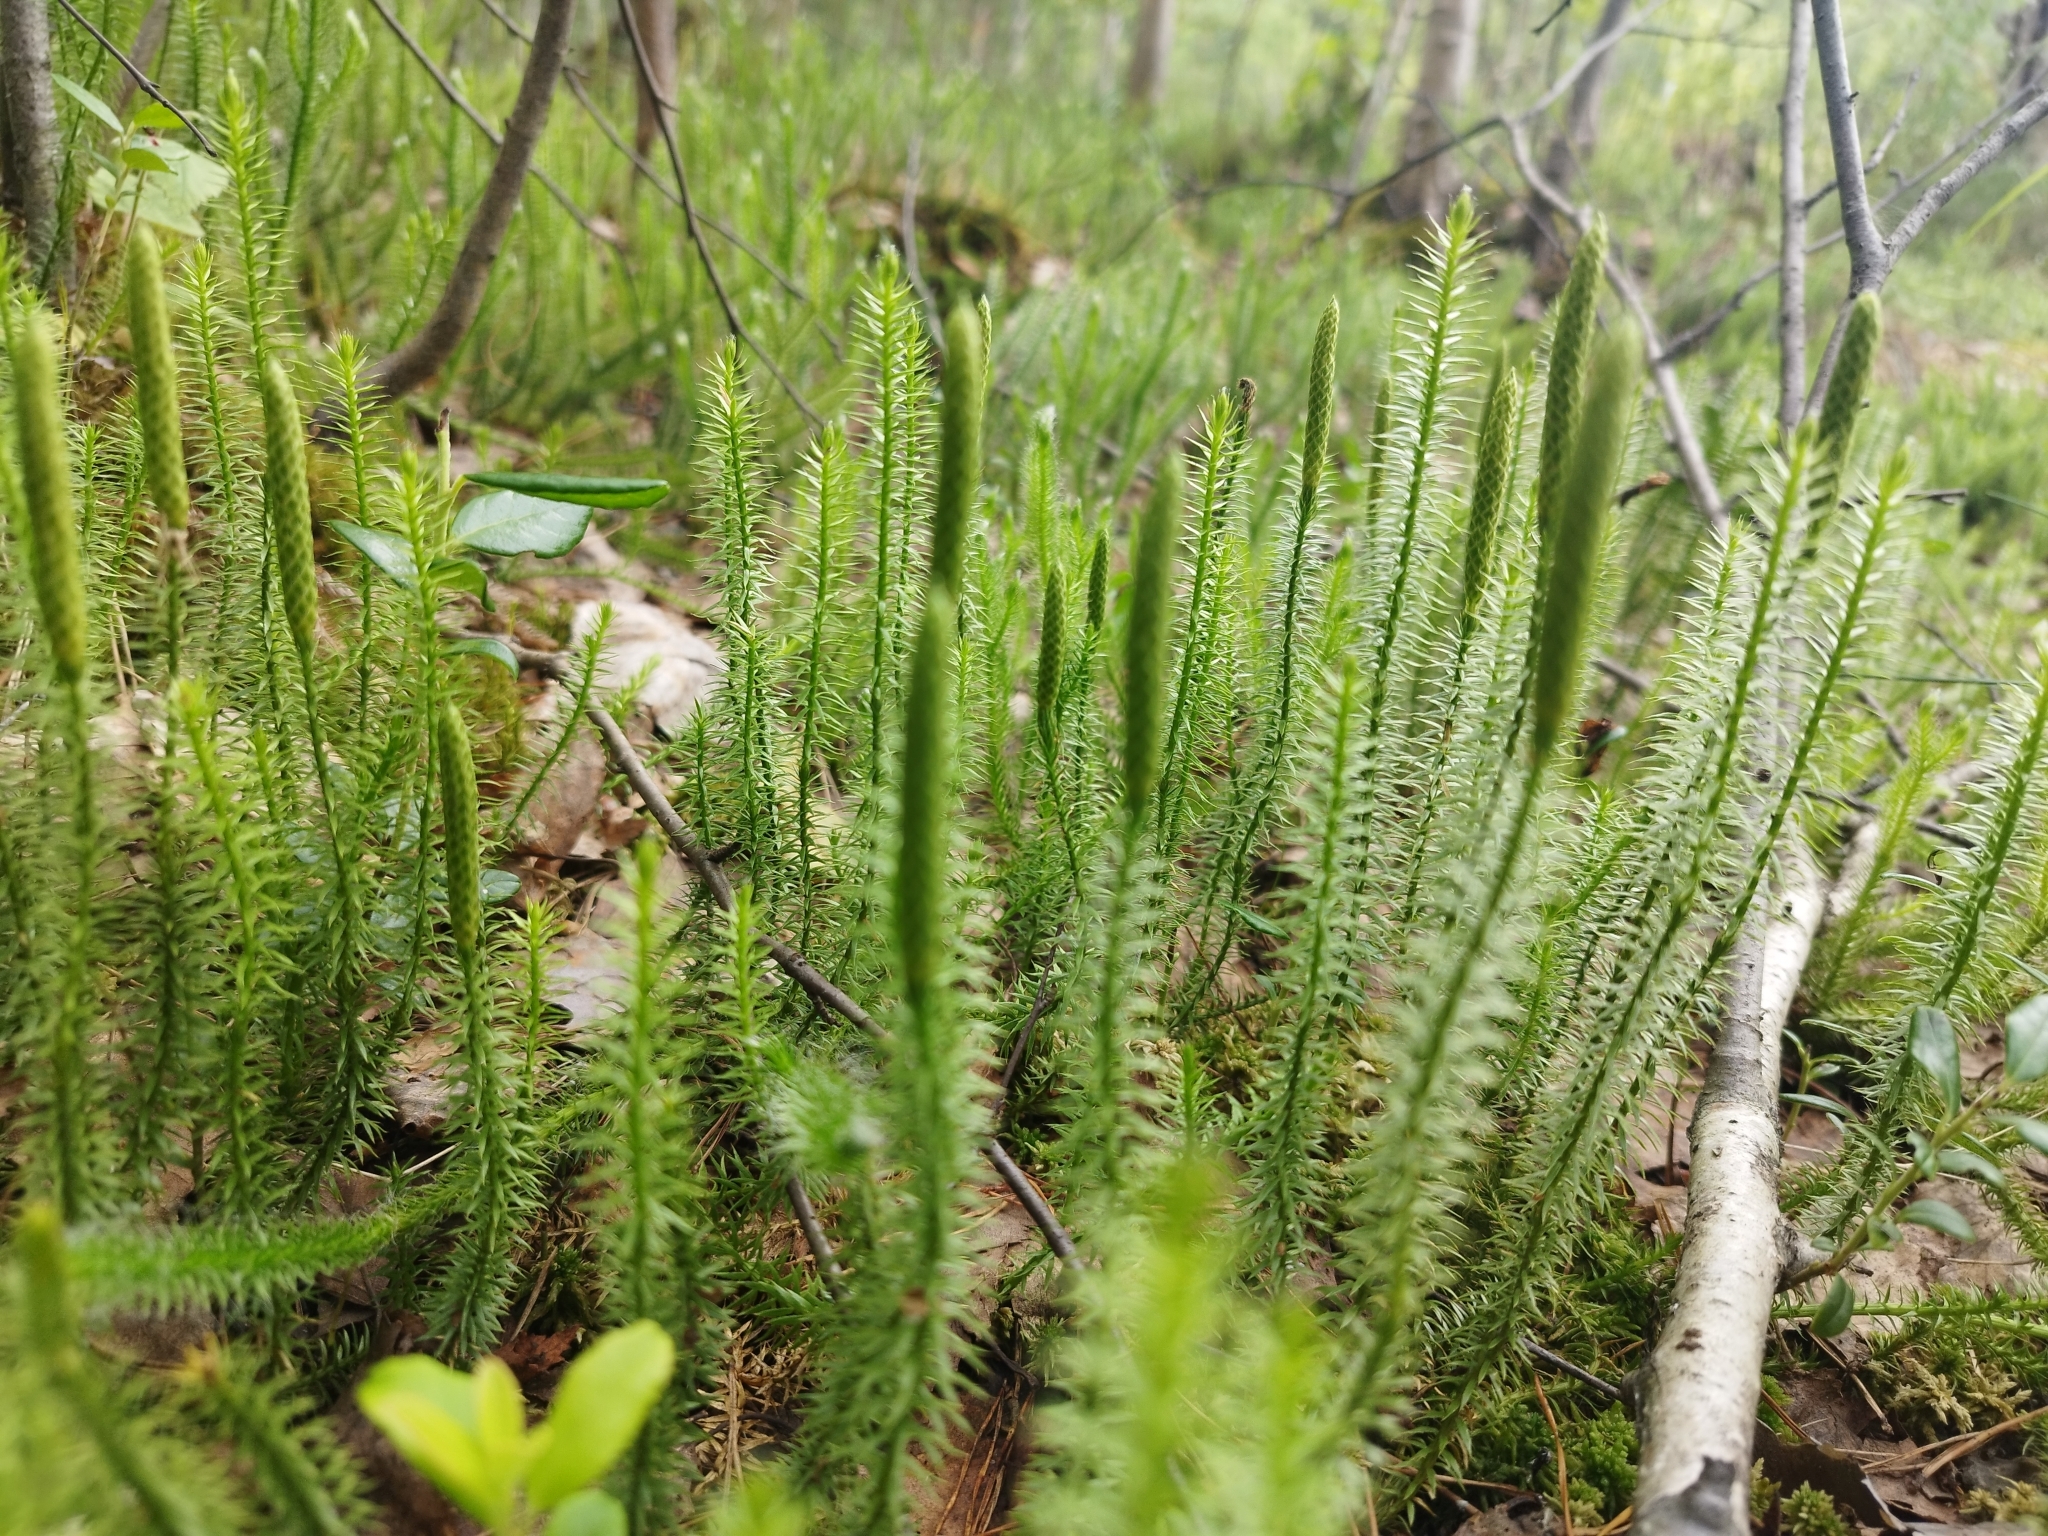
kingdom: Plantae
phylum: Tracheophyta
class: Lycopodiopsida
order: Lycopodiales
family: Lycopodiaceae
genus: Spinulum
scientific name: Spinulum annotinum
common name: Interrupted club-moss
